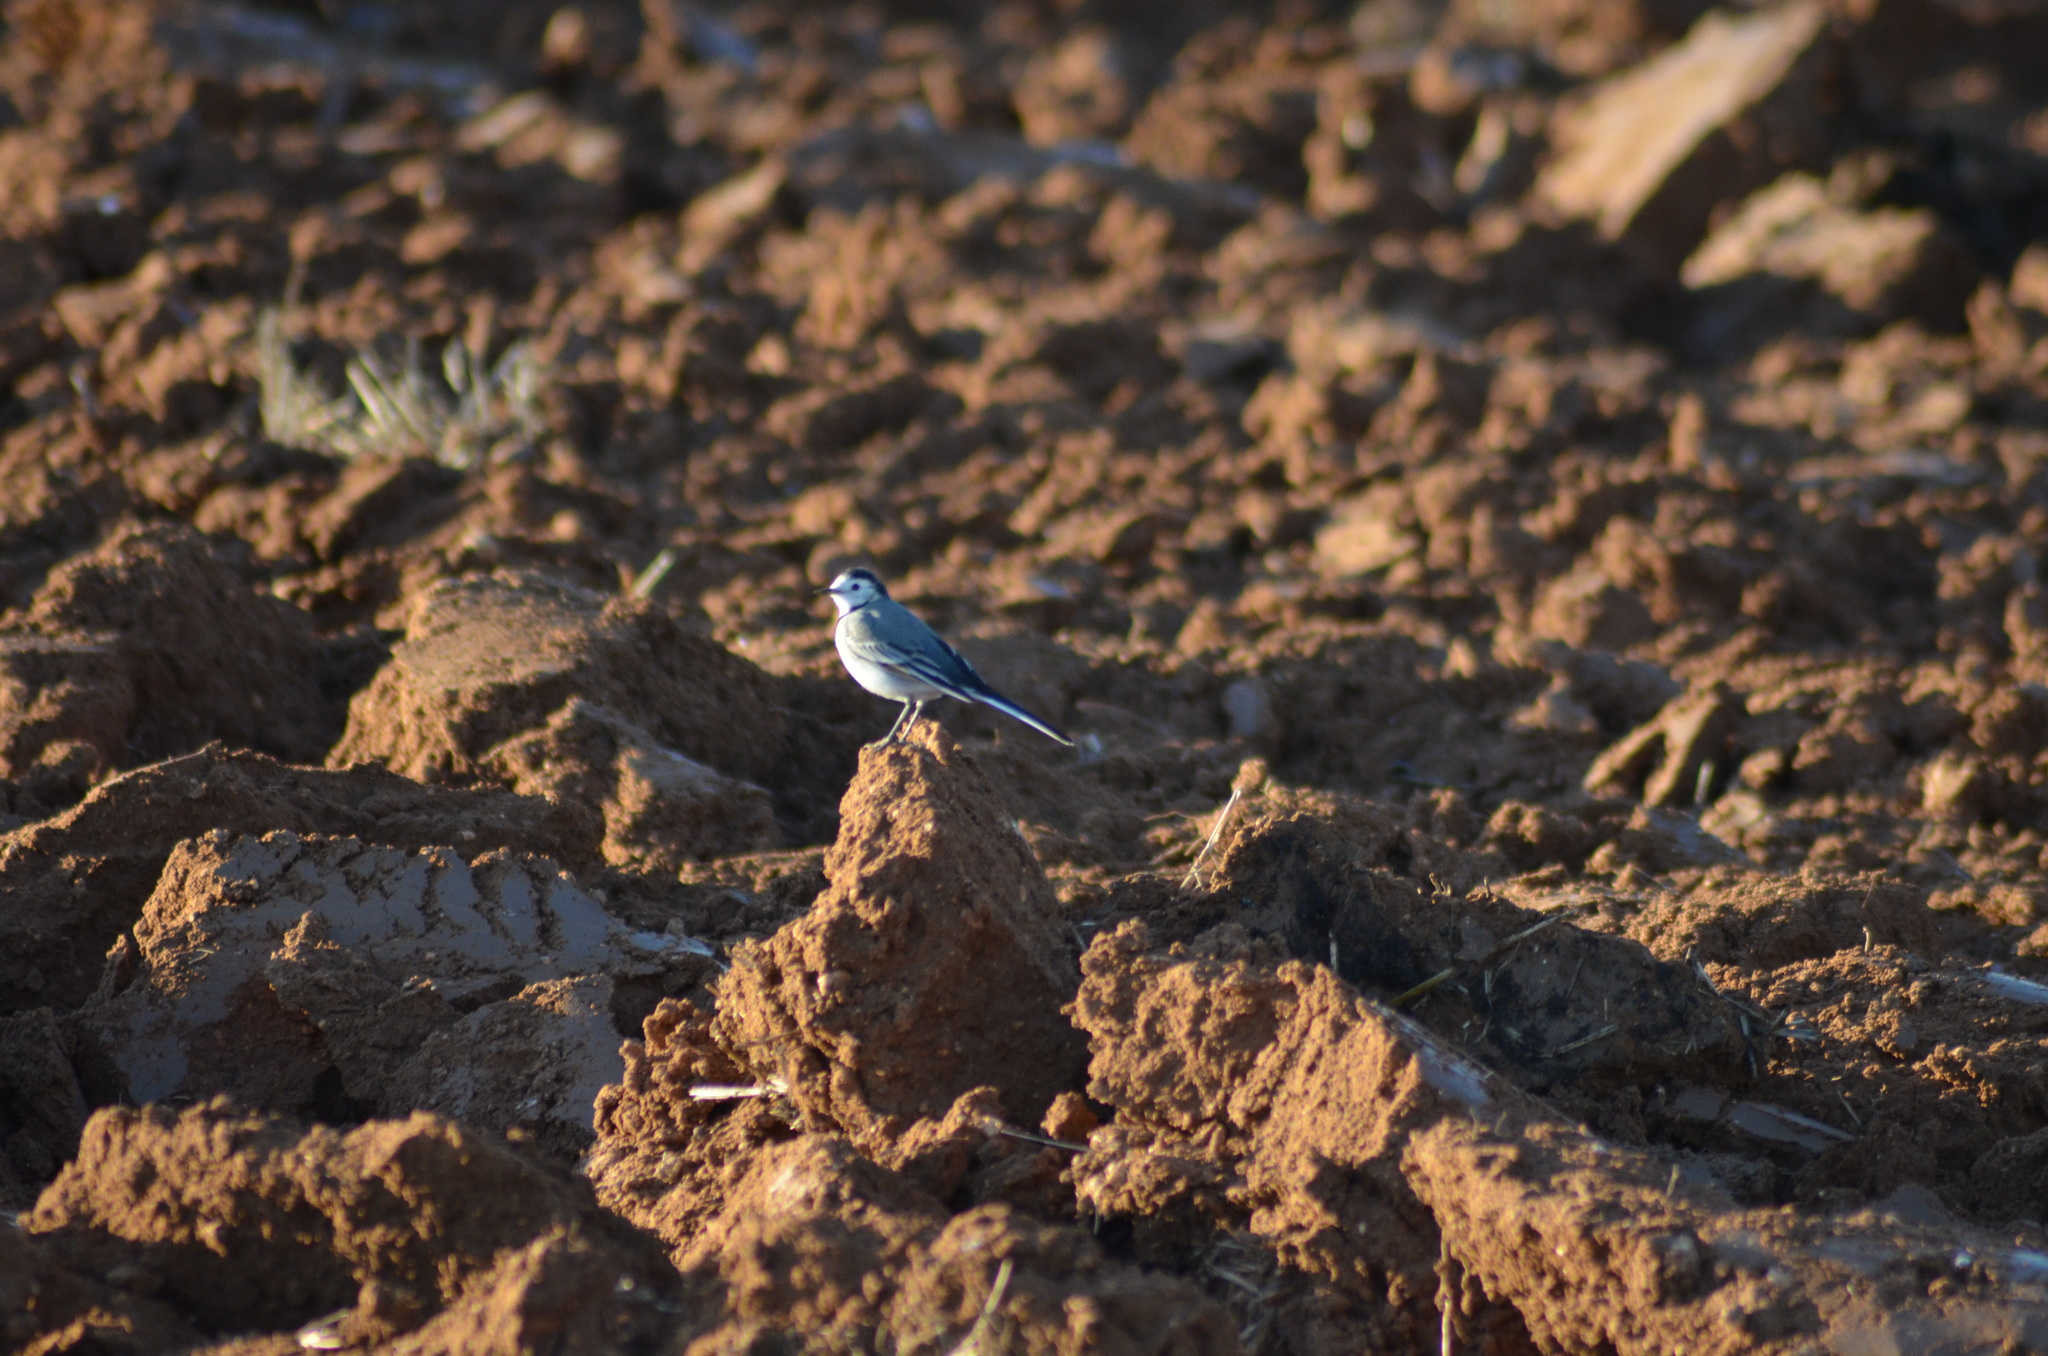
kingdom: Animalia
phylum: Chordata
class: Aves
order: Passeriformes
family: Motacillidae
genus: Motacilla
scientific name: Motacilla alba
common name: White wagtail
